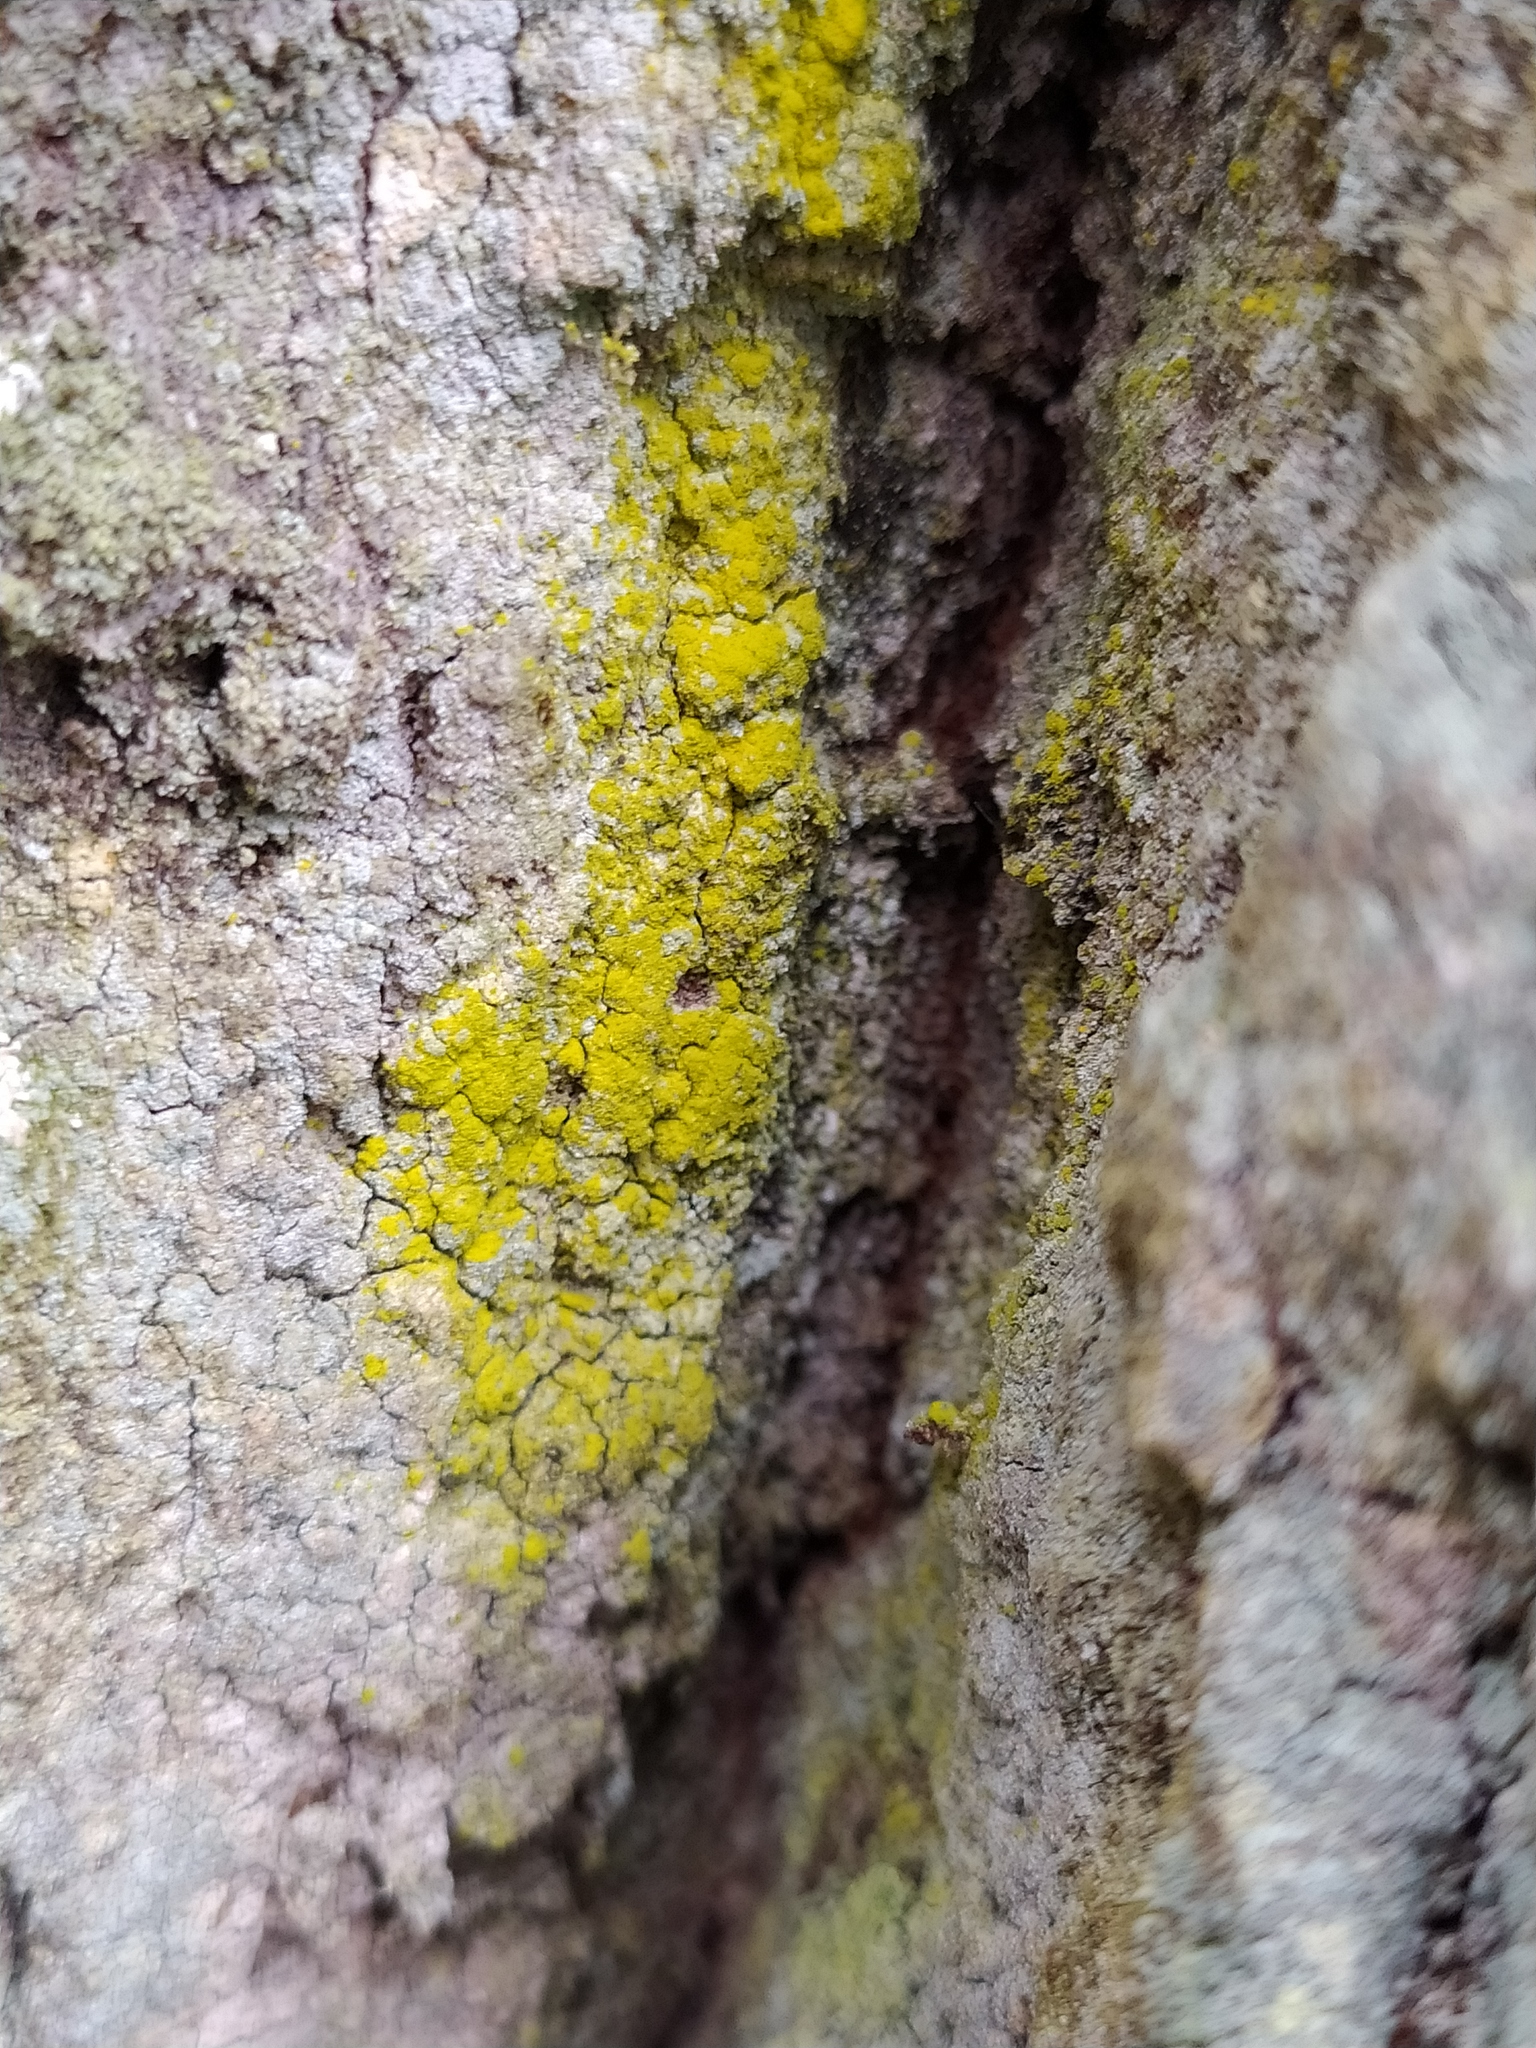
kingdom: Fungi
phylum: Ascomycota
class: Arthoniomycetes
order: Arthoniales
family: Chrysotrichaceae
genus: Chrysothrix
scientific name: Chrysothrix candelaris
